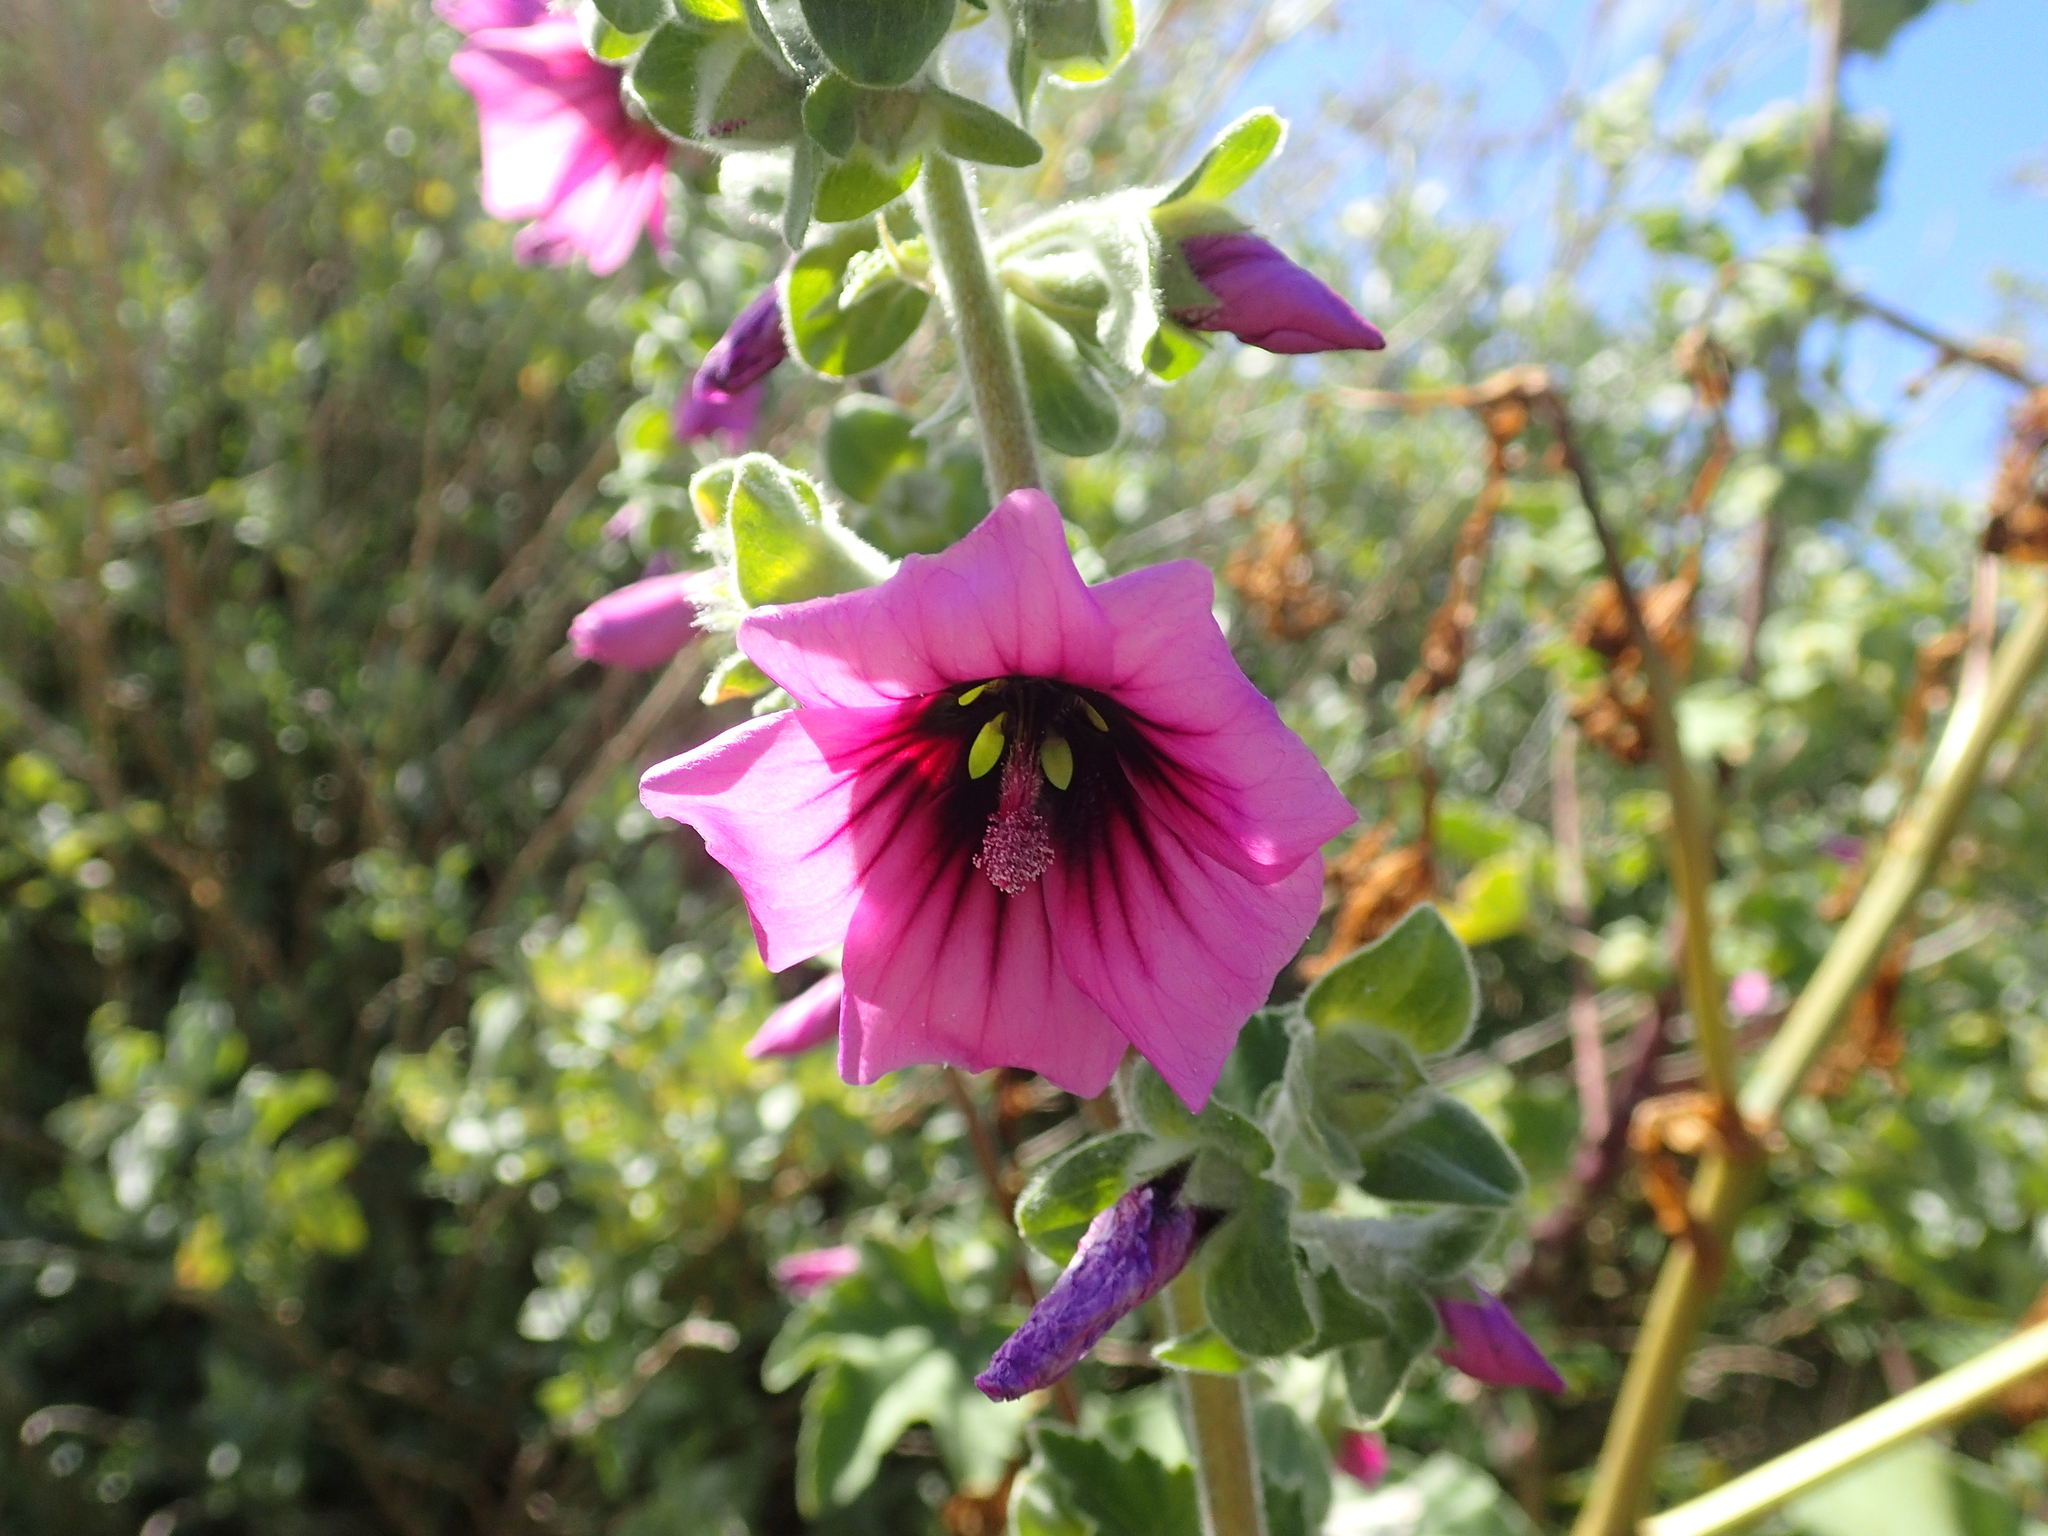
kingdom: Plantae
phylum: Tracheophyta
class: Magnoliopsida
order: Malvales
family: Malvaceae
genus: Malva
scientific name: Malva arborea
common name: Tree mallow
